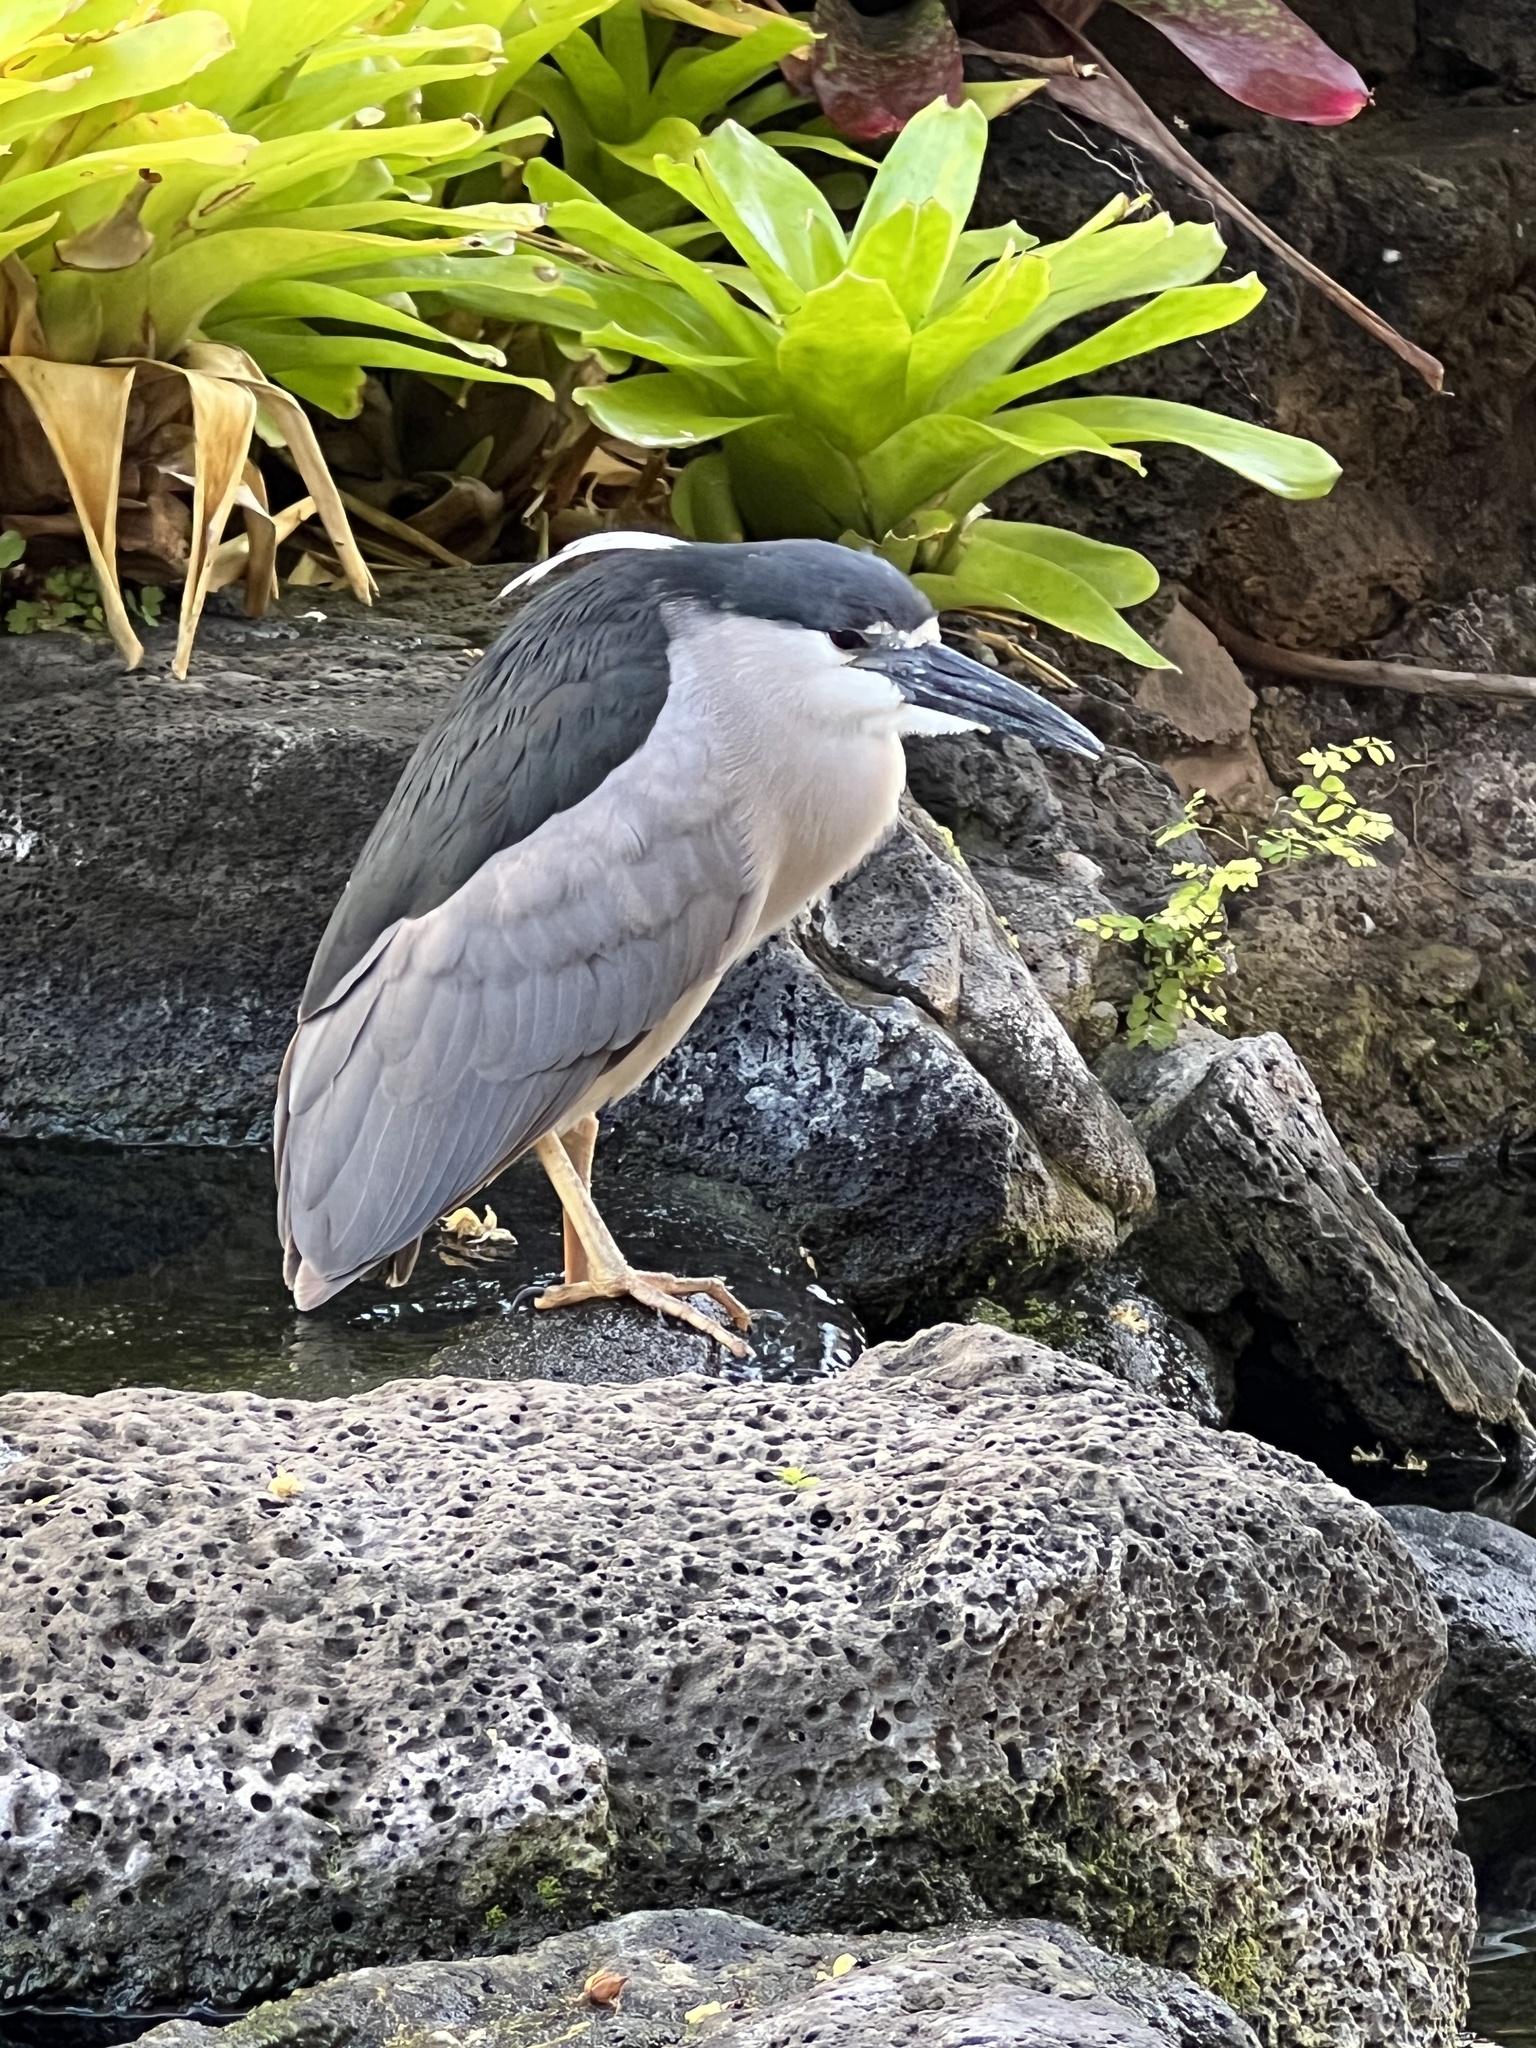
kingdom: Animalia
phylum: Chordata
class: Aves
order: Pelecaniformes
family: Ardeidae
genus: Nycticorax
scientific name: Nycticorax nycticorax
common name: Black-crowned night heron
